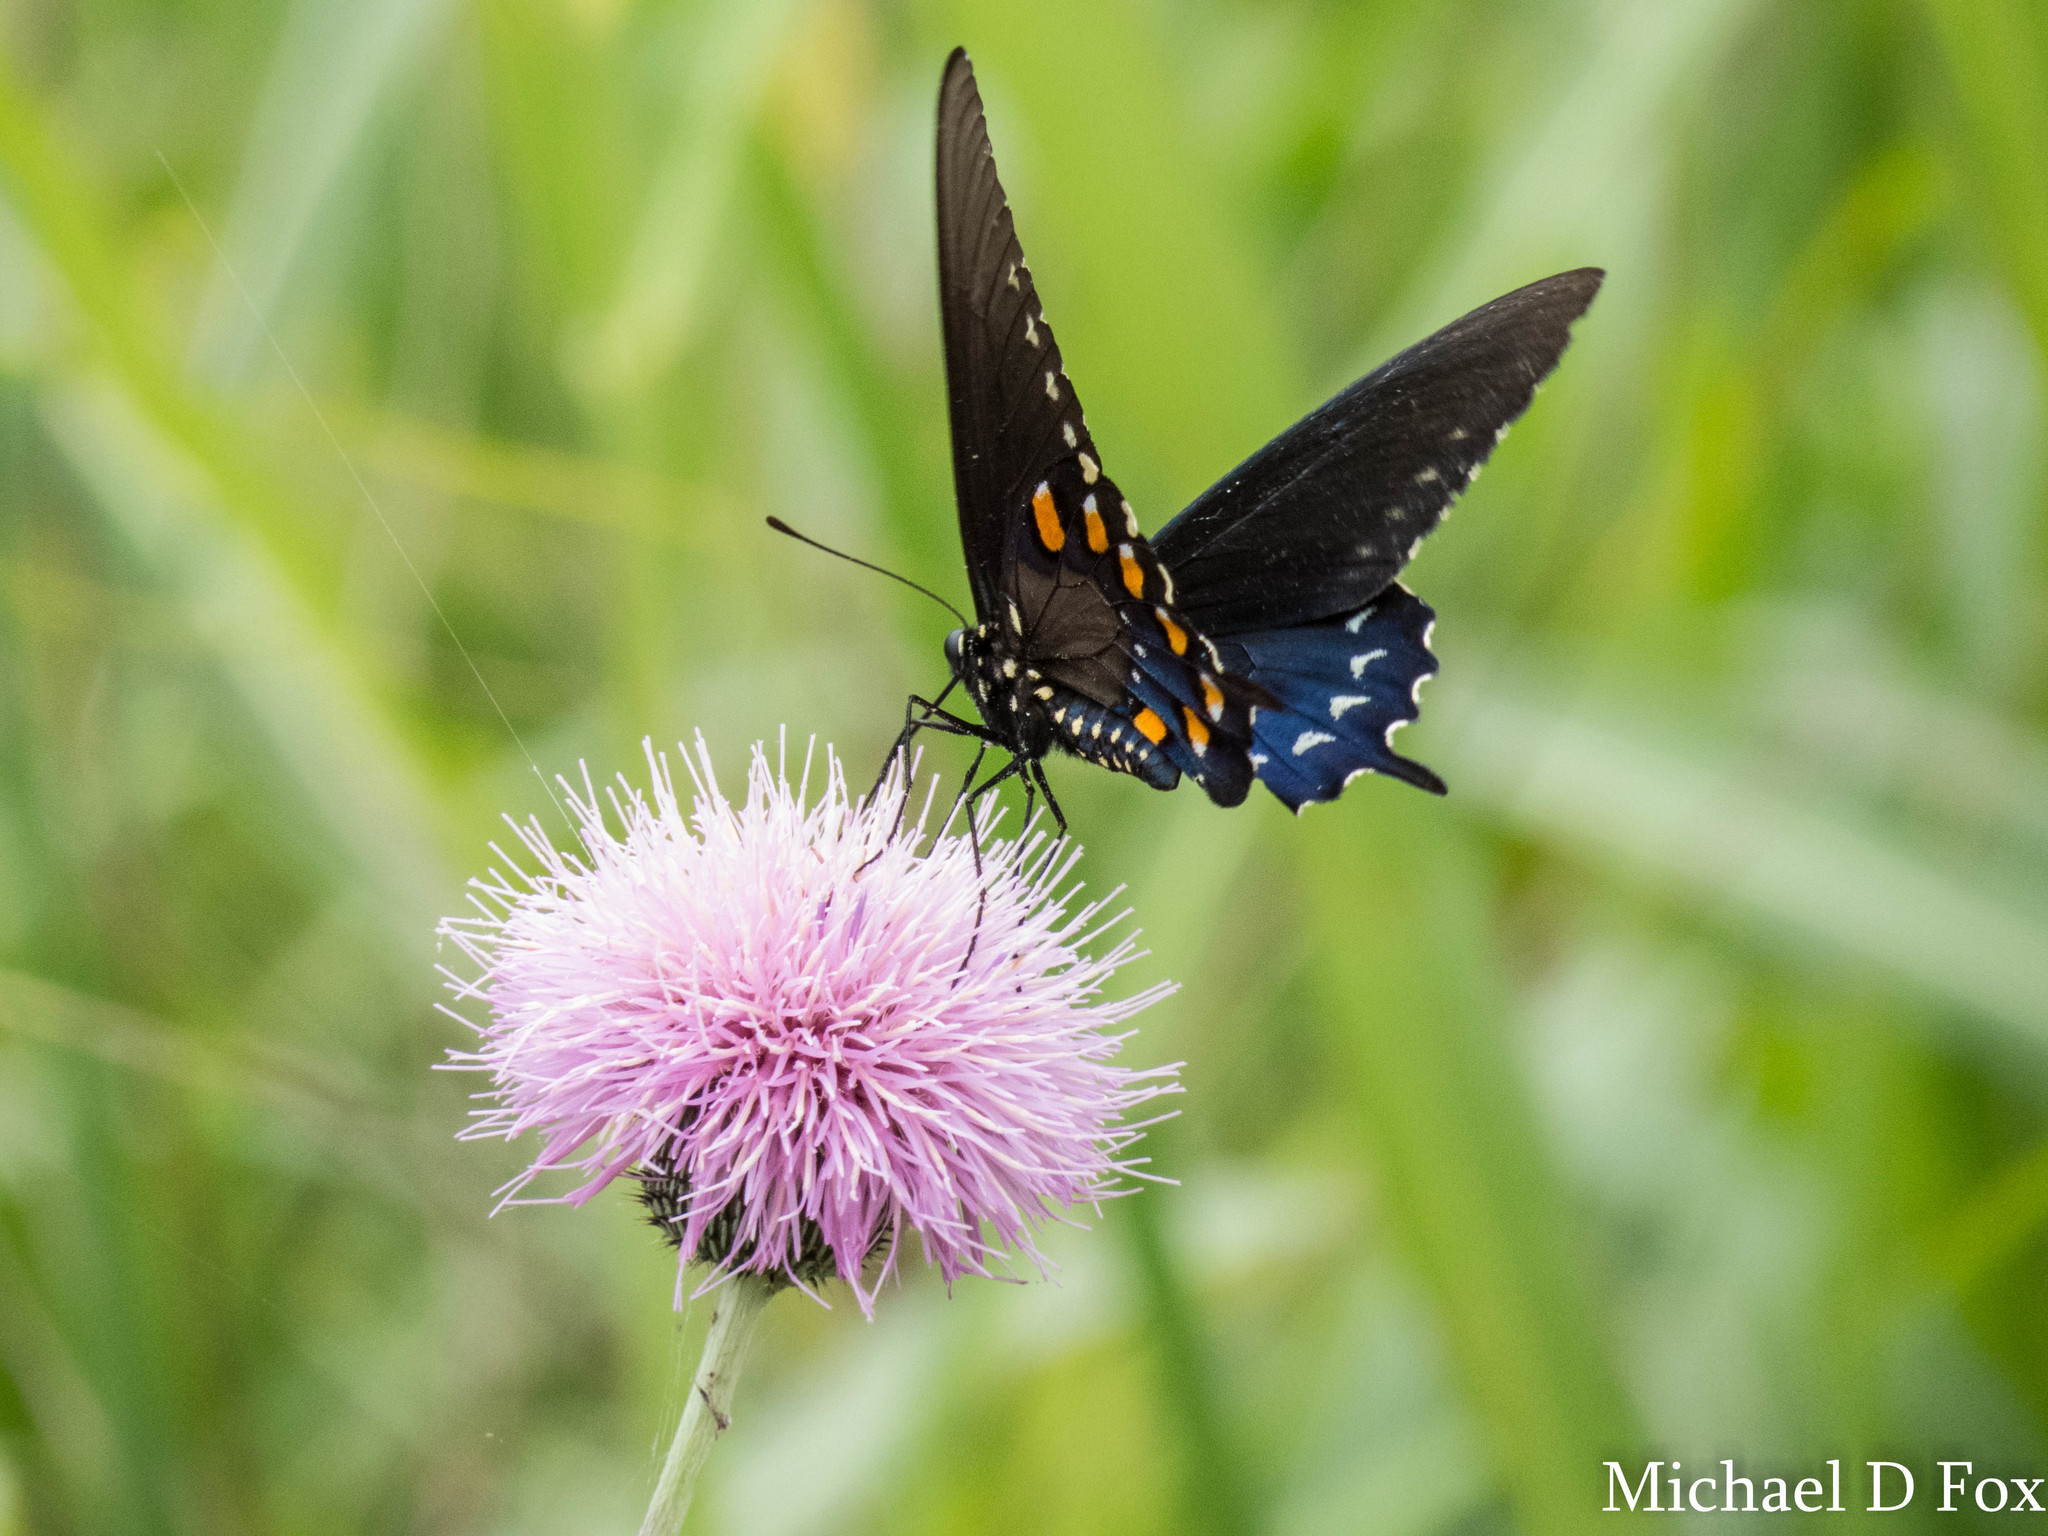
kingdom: Animalia
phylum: Arthropoda
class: Insecta
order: Lepidoptera
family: Papilionidae
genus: Battus
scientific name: Battus philenor
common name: Pipevine swallowtail
